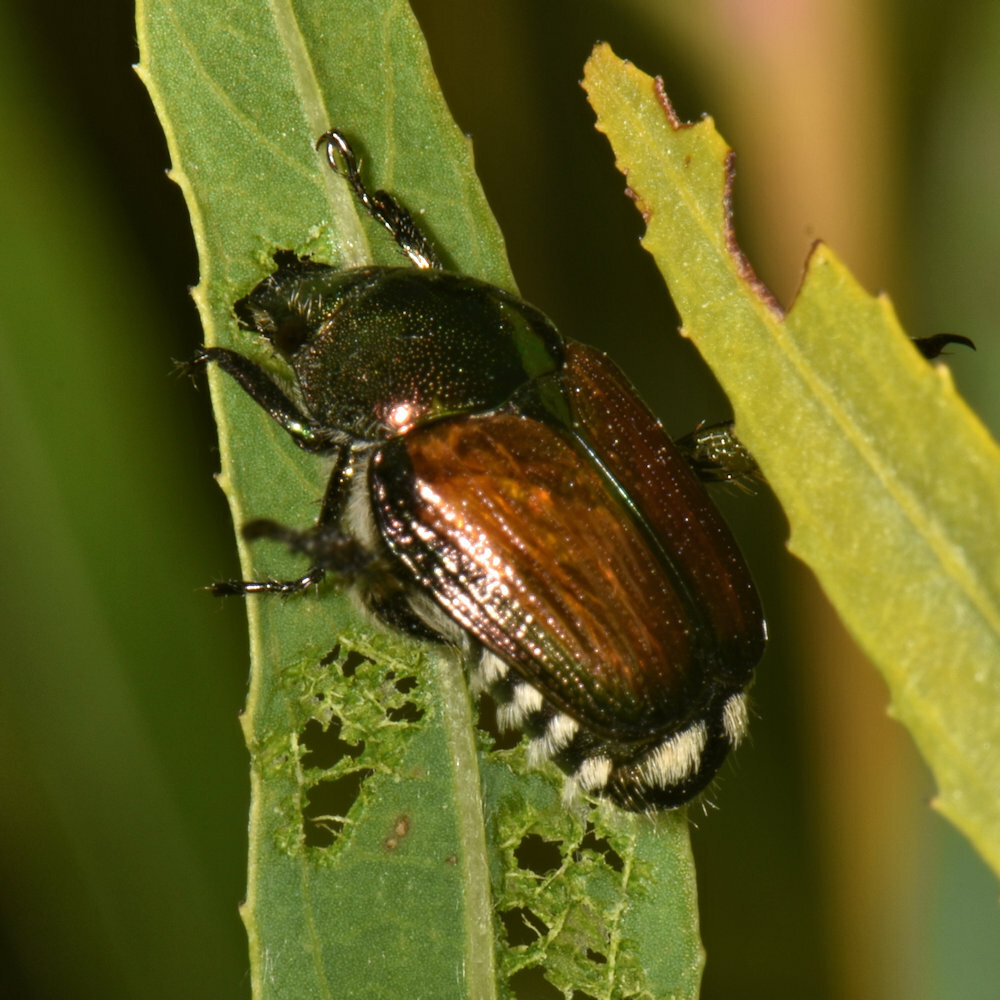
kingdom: Animalia
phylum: Arthropoda
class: Insecta
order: Coleoptera
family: Scarabaeidae
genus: Popillia
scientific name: Popillia japonica
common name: Japanese beetle
